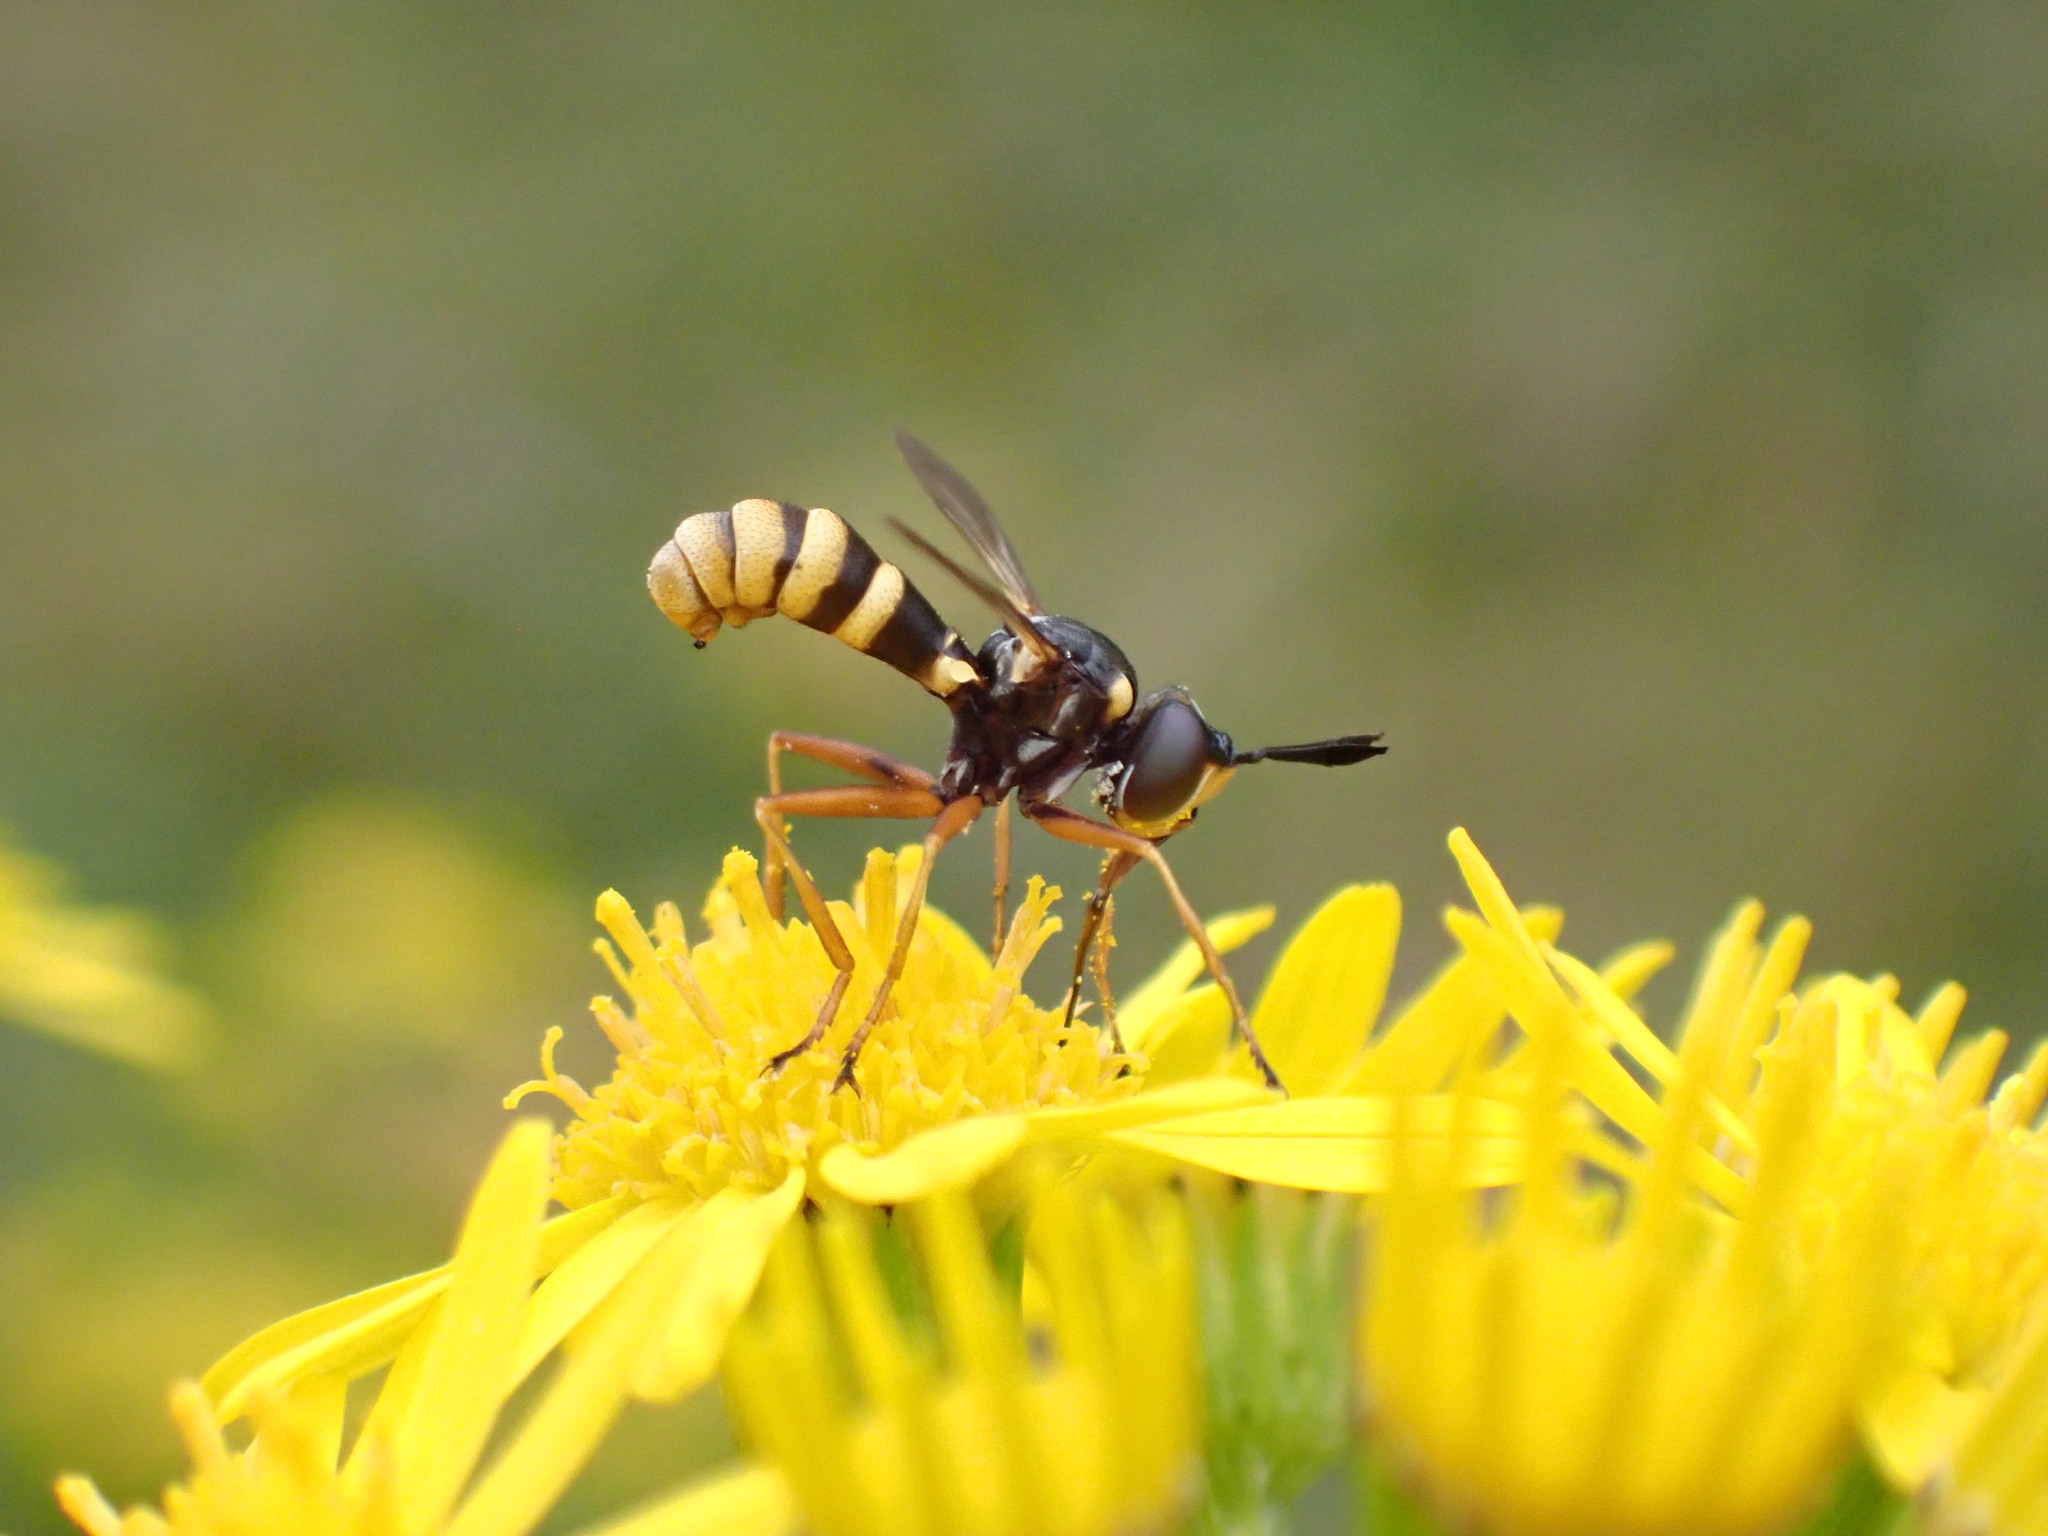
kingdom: Animalia
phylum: Arthropoda
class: Insecta
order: Diptera
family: Conopidae
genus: Conops
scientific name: Conops quadrifasciatus
